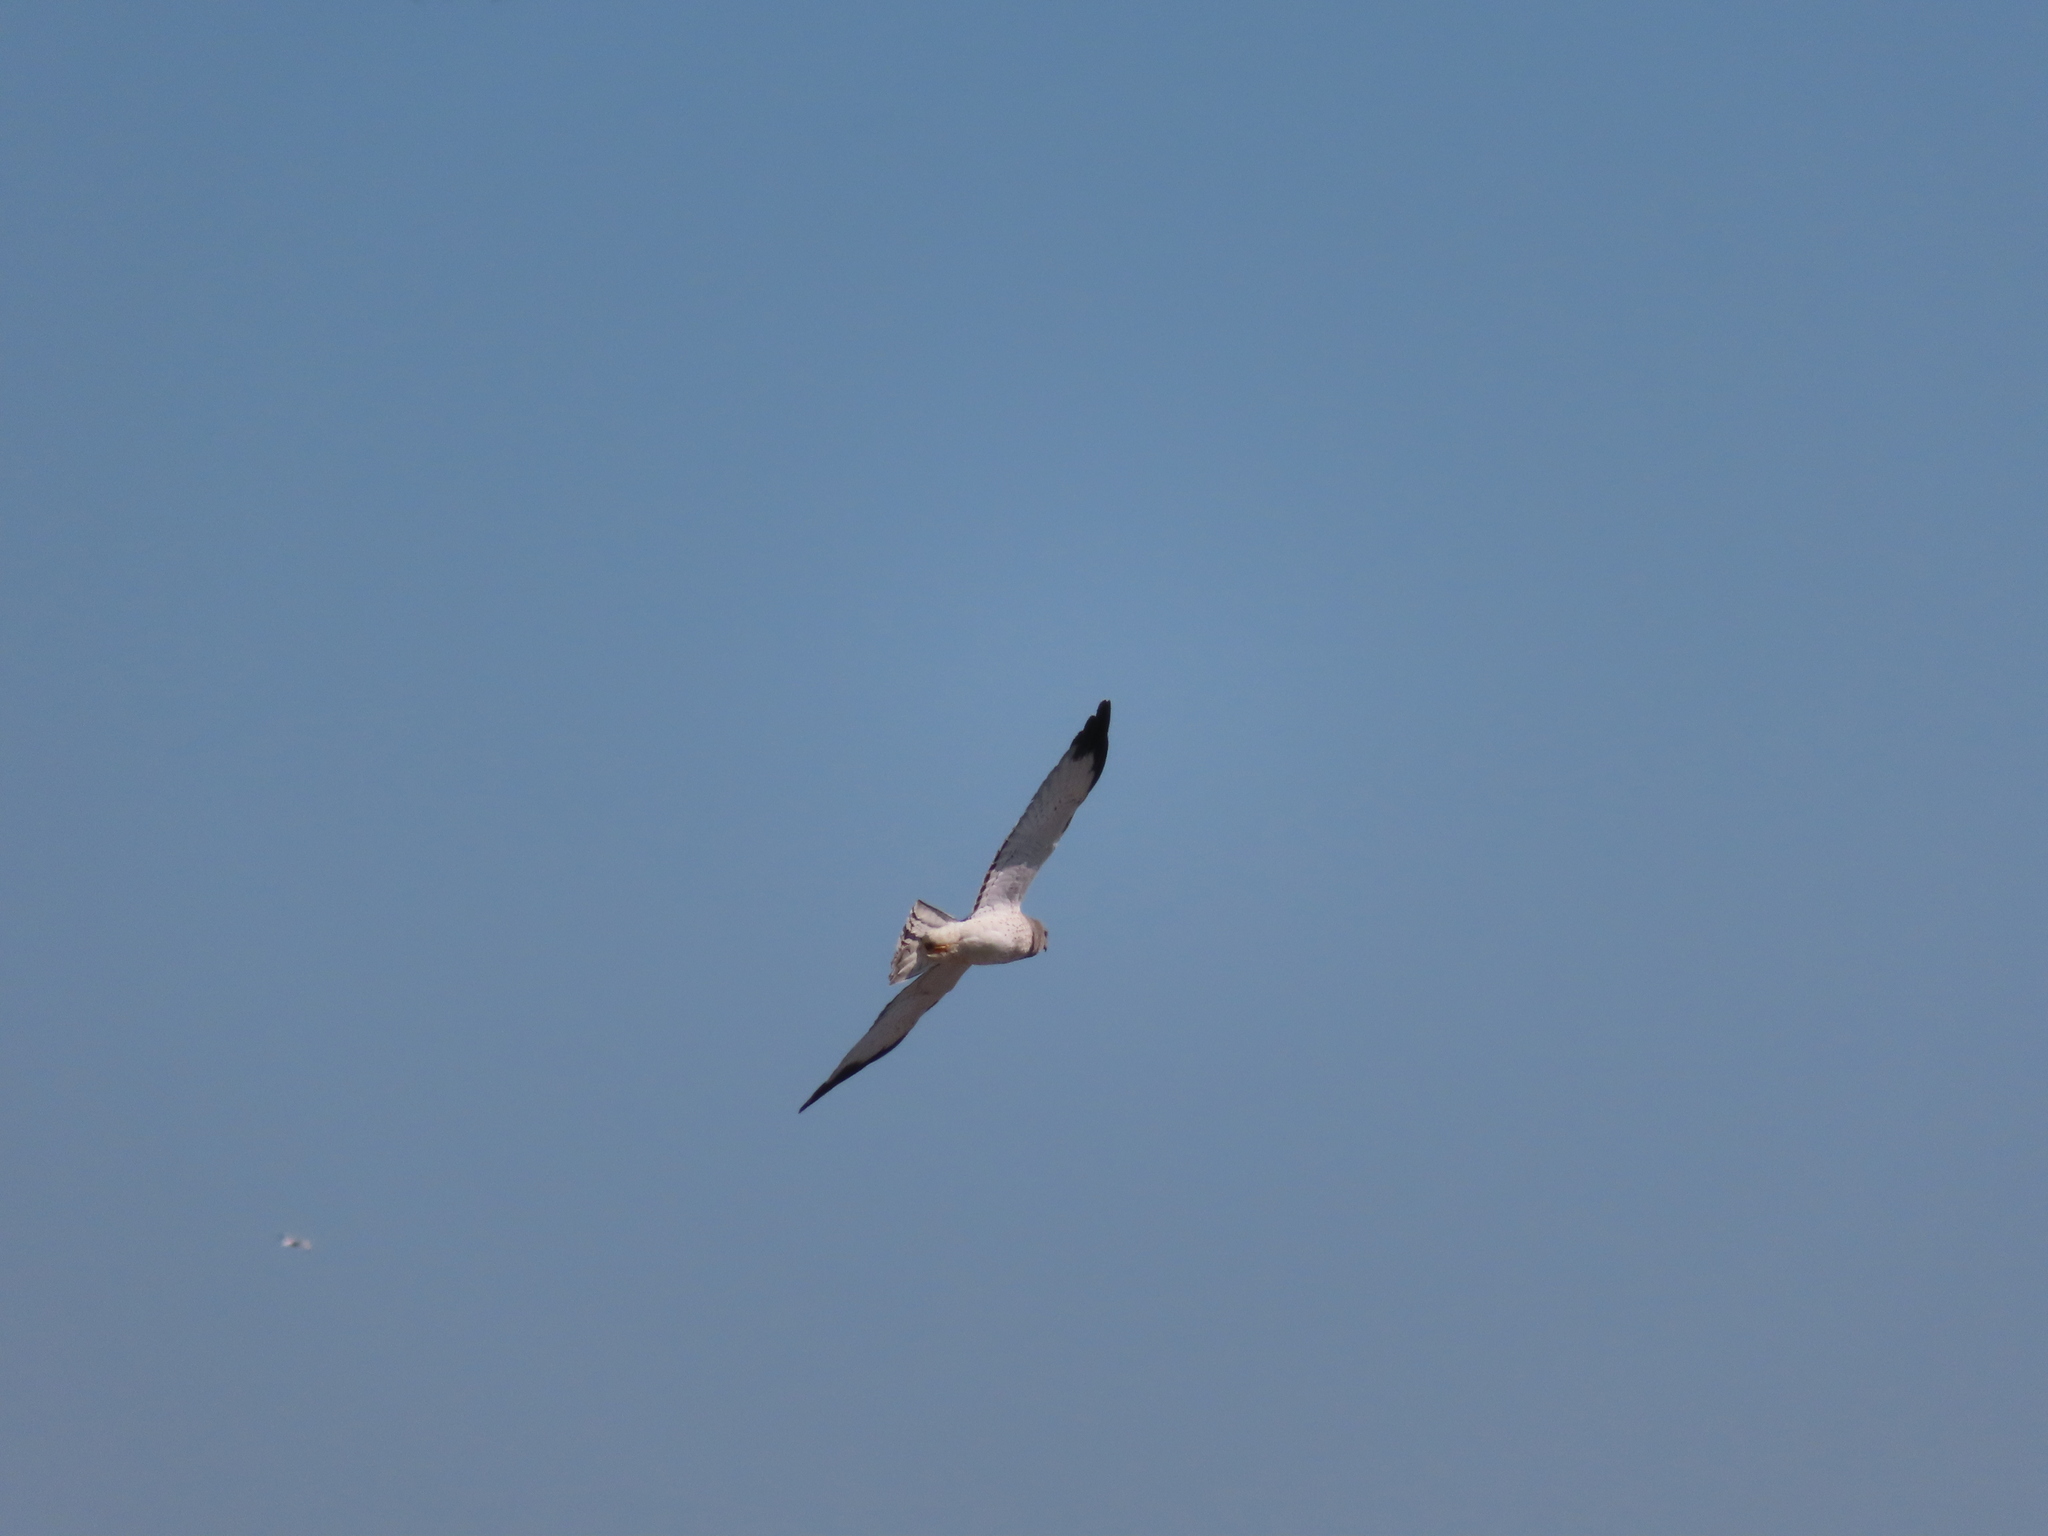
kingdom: Animalia
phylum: Chordata
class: Aves
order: Accipitriformes
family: Accipitridae
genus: Circus
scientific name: Circus cyaneus
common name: Hen harrier
